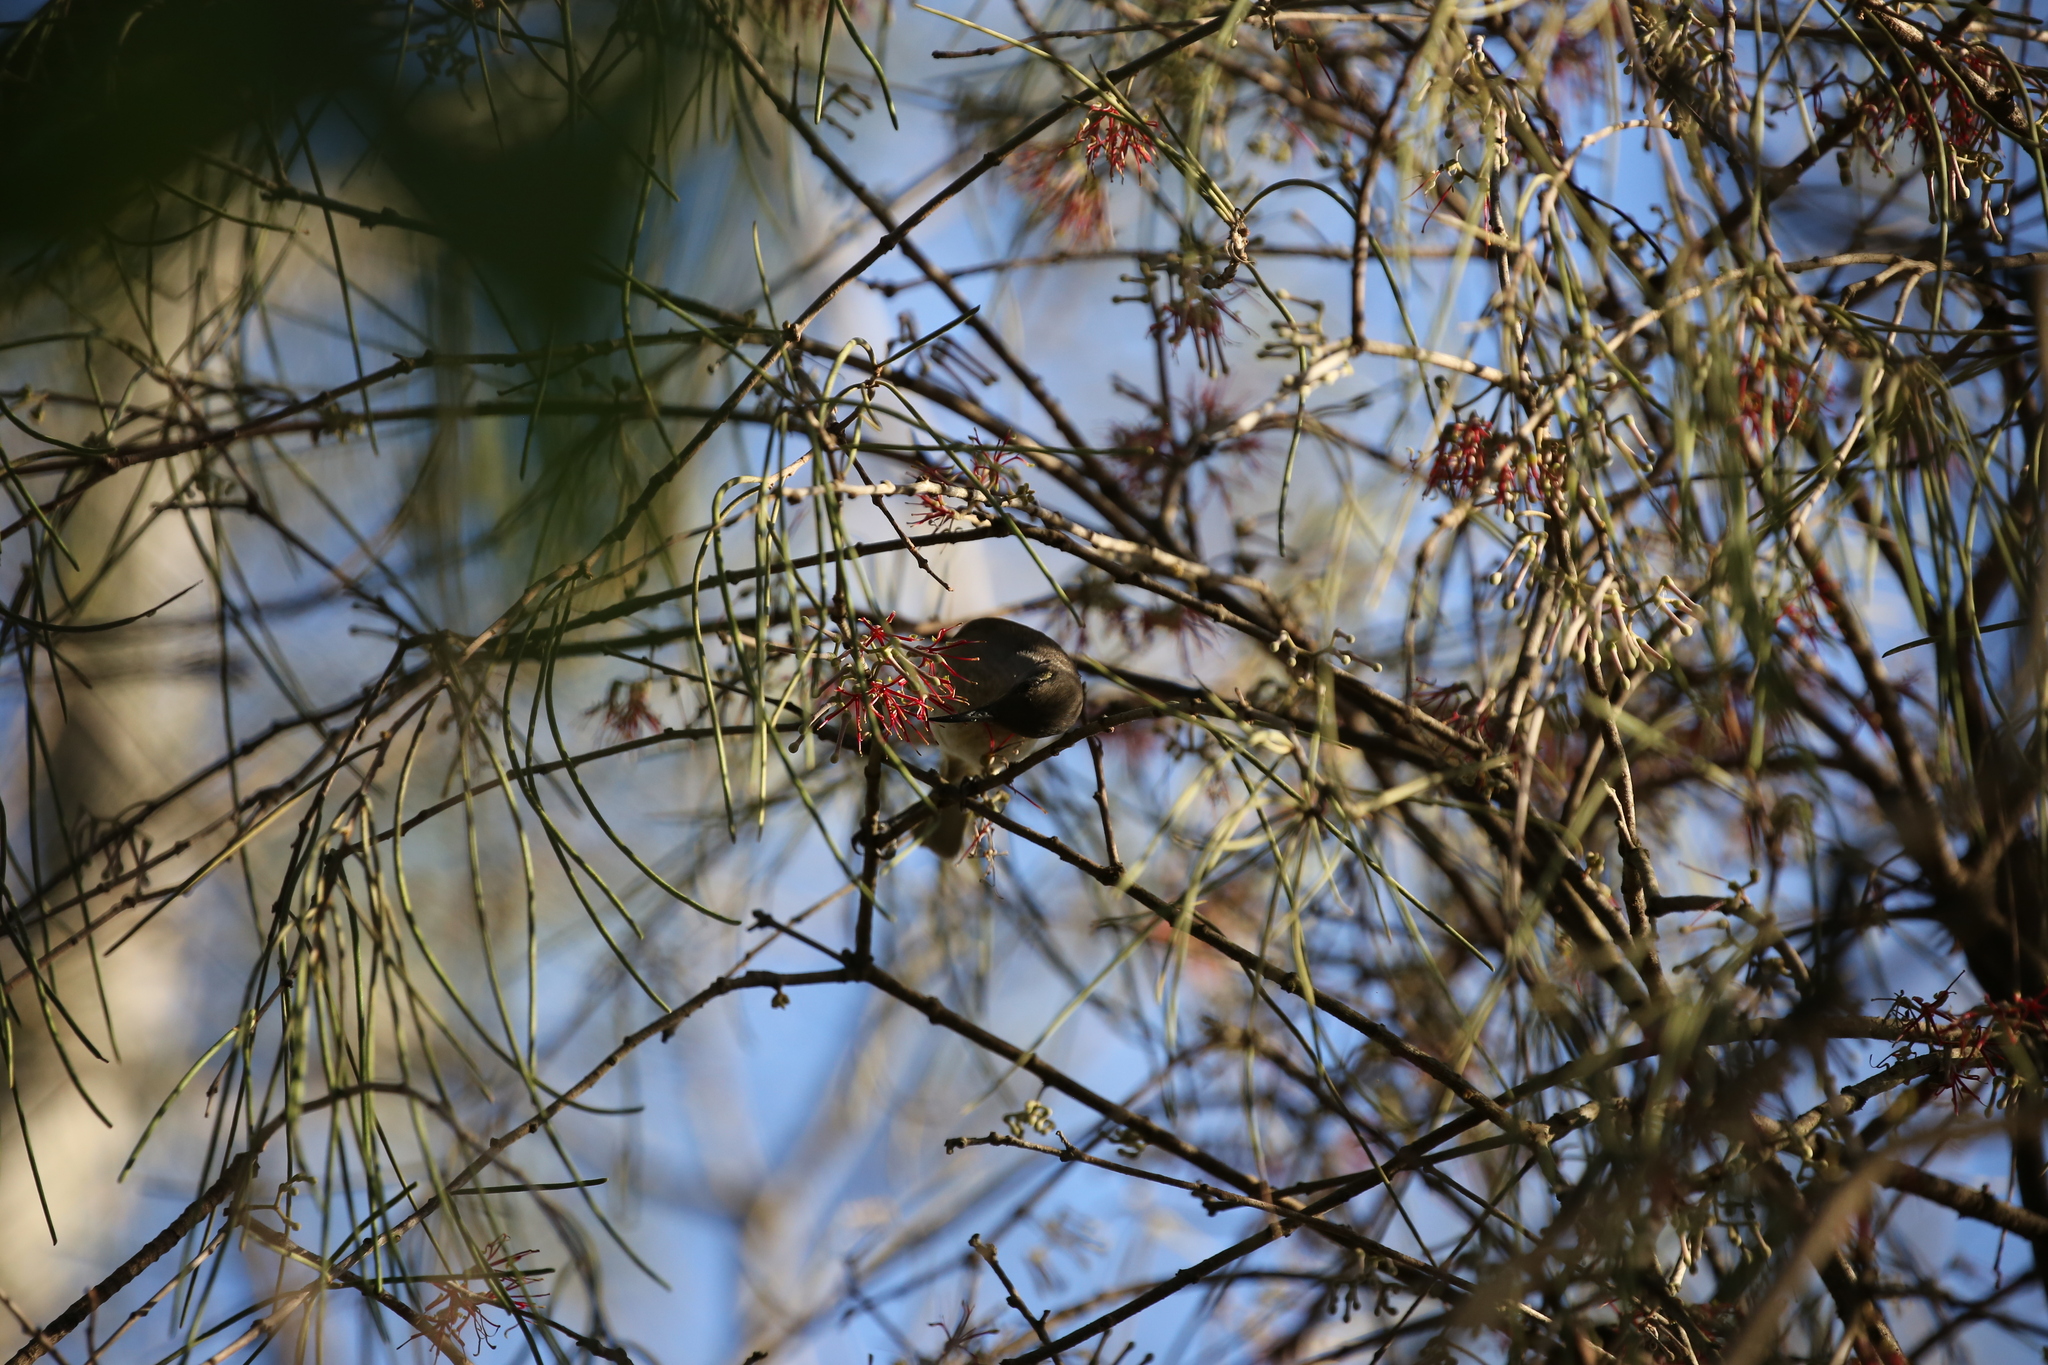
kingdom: Animalia
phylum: Chordata
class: Aves
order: Passeriformes
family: Meliphagidae
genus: Lichmera
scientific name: Lichmera indistincta
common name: Brown honeyeater
